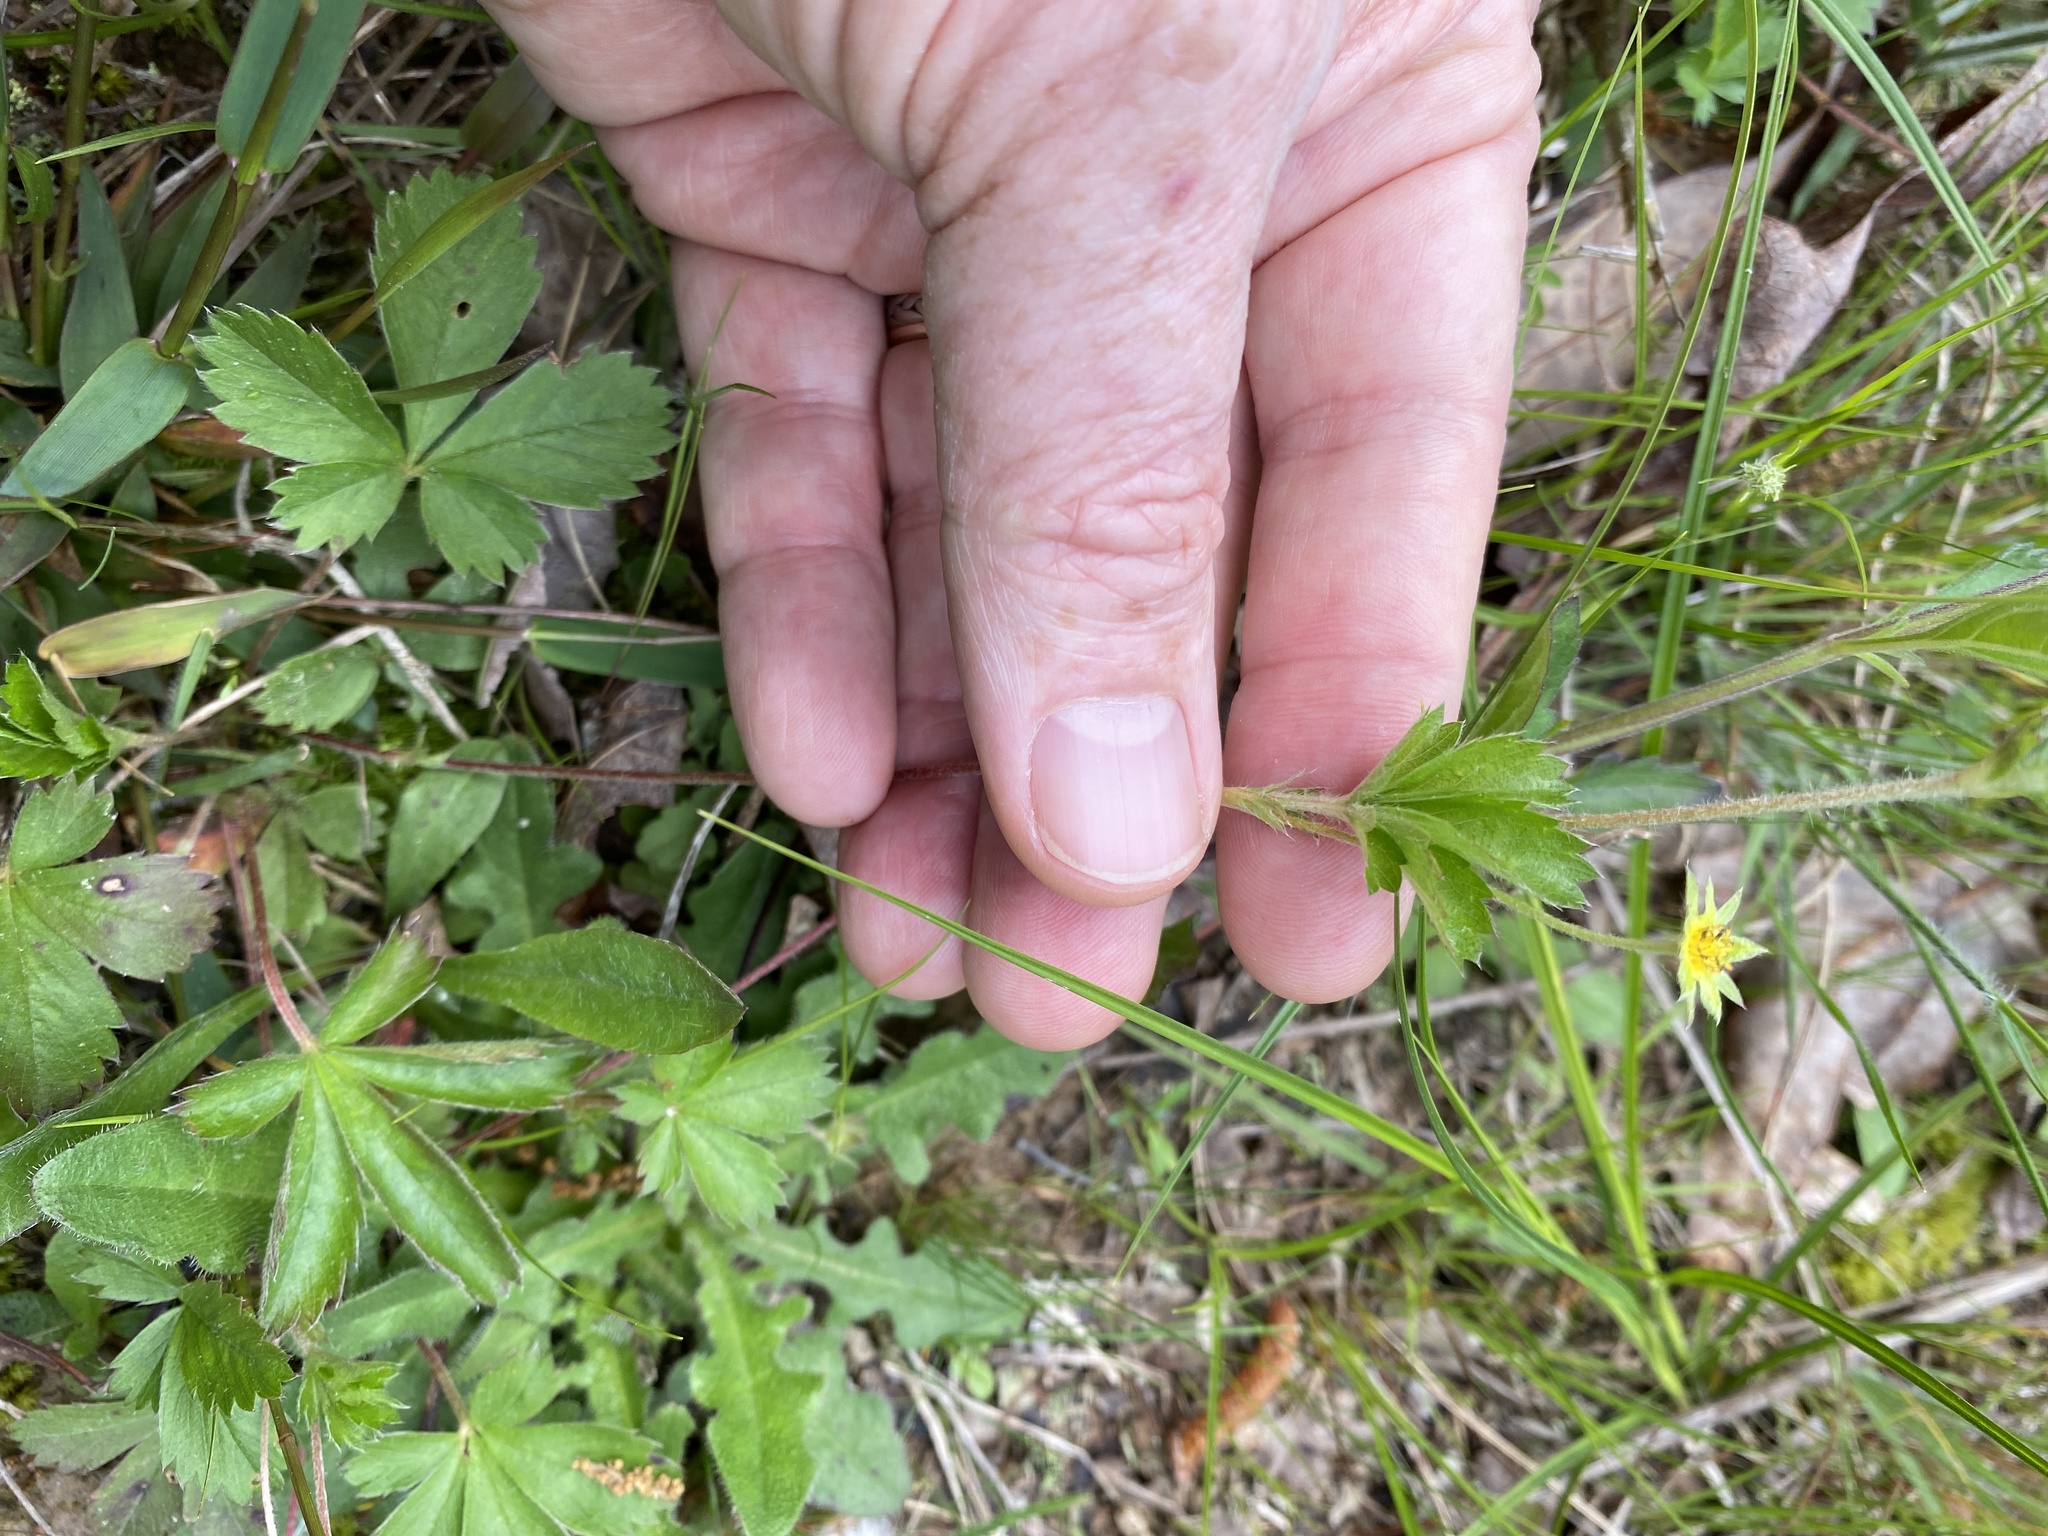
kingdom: Plantae
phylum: Tracheophyta
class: Magnoliopsida
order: Rosales
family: Rosaceae
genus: Potentilla
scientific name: Potentilla canadensis
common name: Canada cinquefoil
